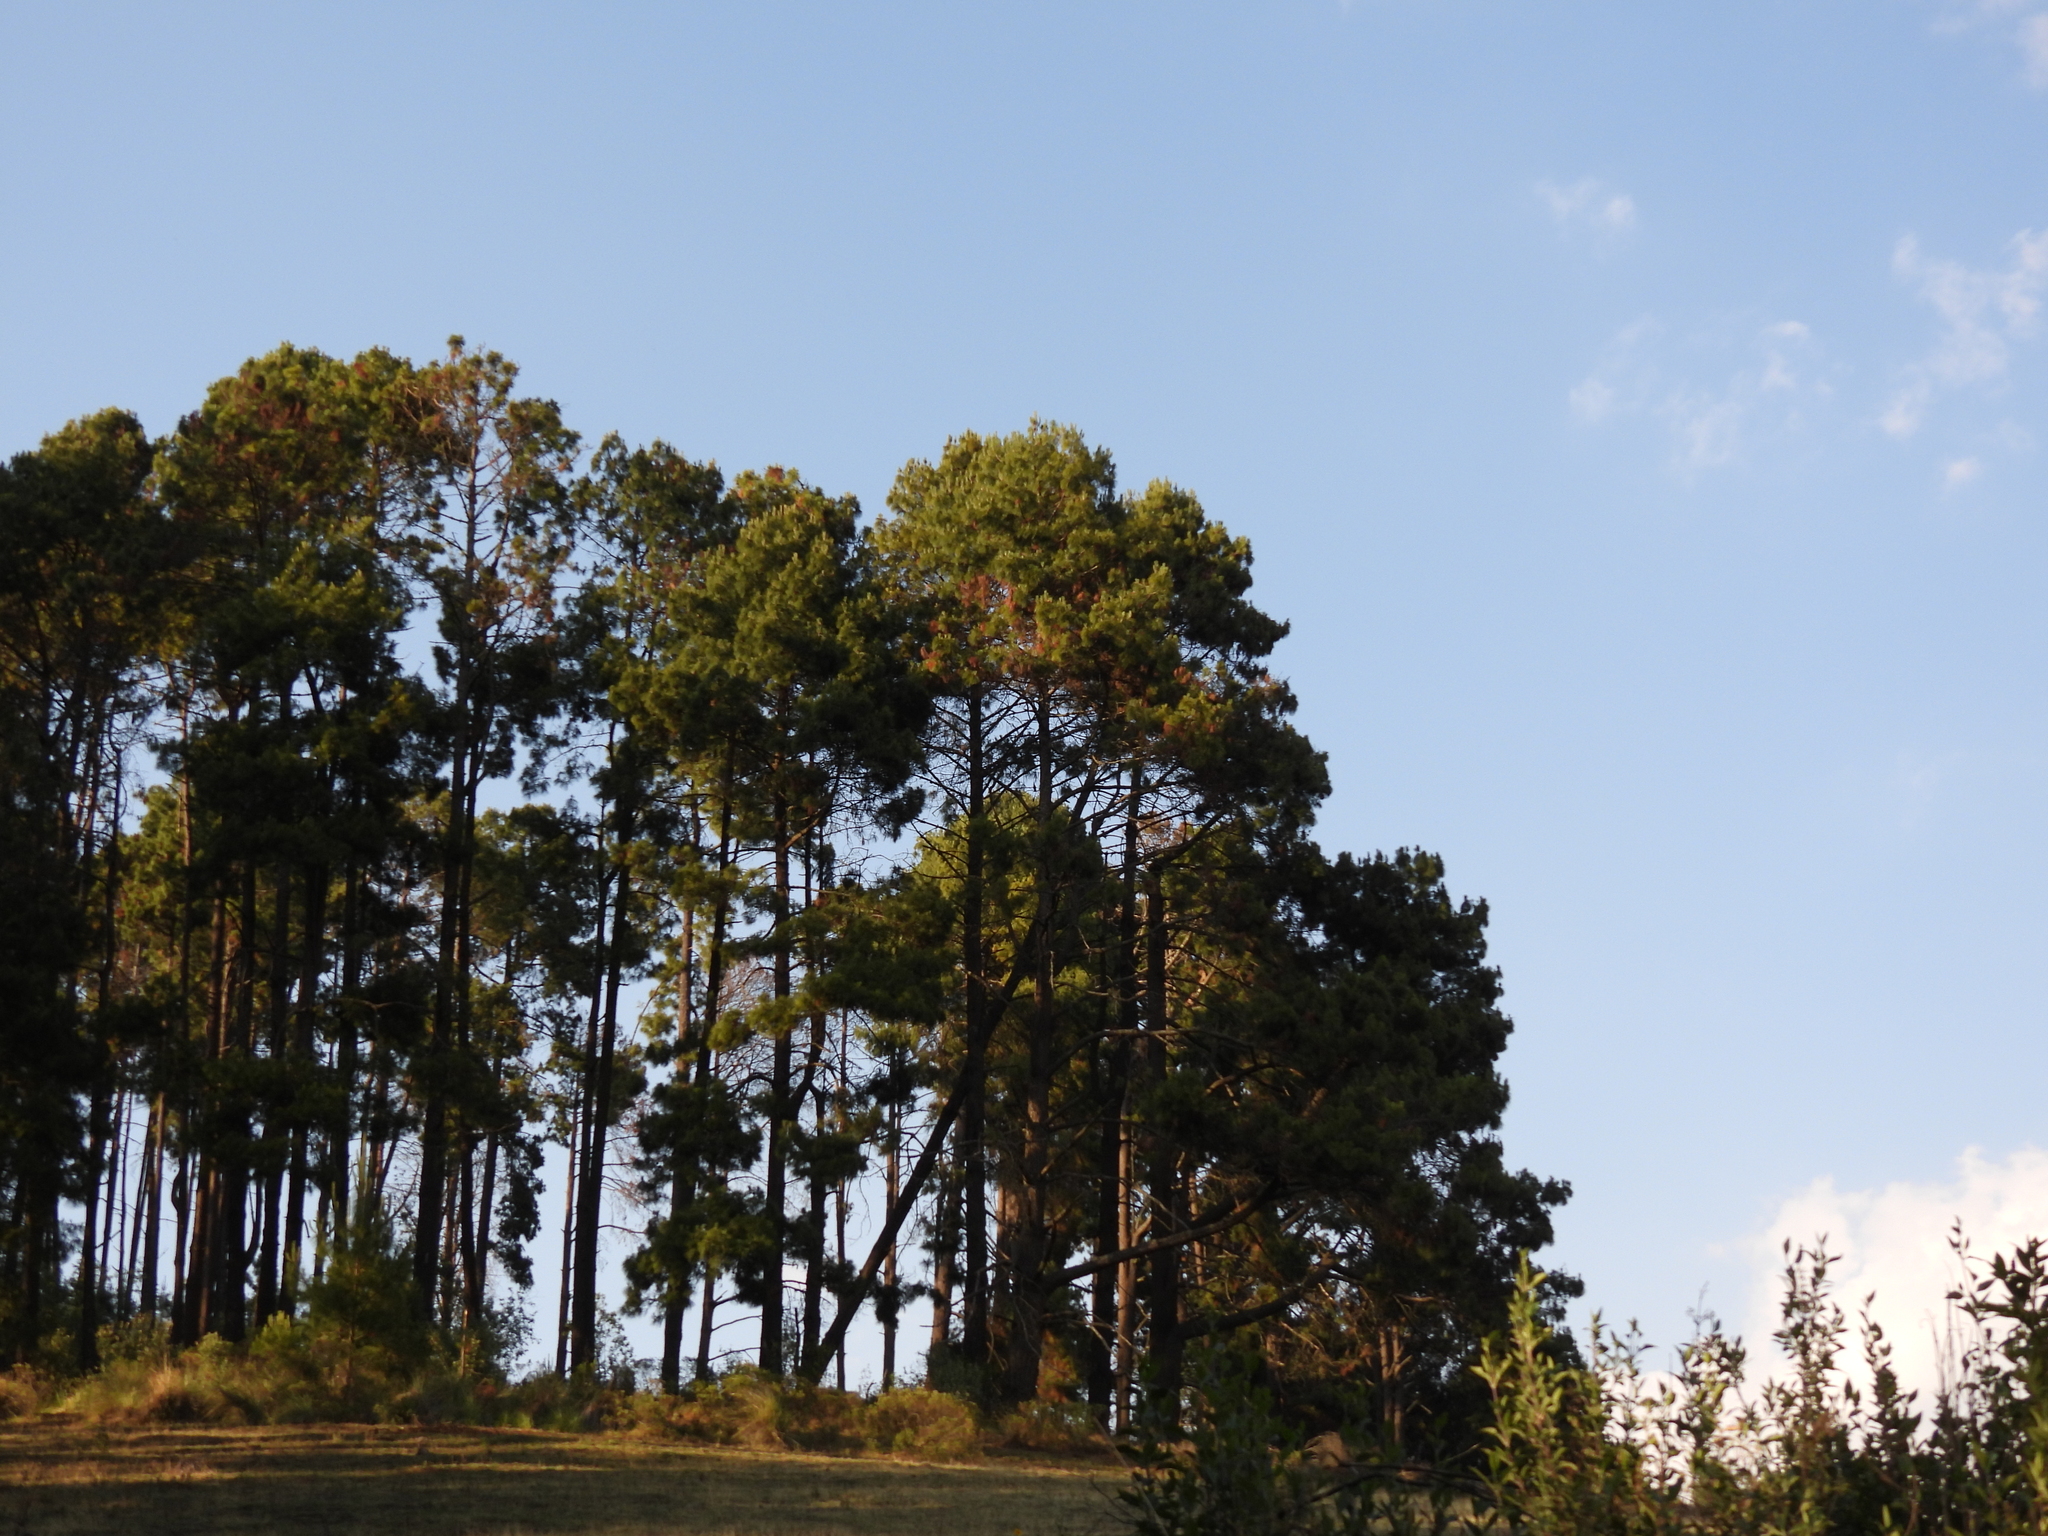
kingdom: Plantae
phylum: Tracheophyta
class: Pinopsida
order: Pinales
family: Pinaceae
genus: Pinus
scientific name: Pinus
